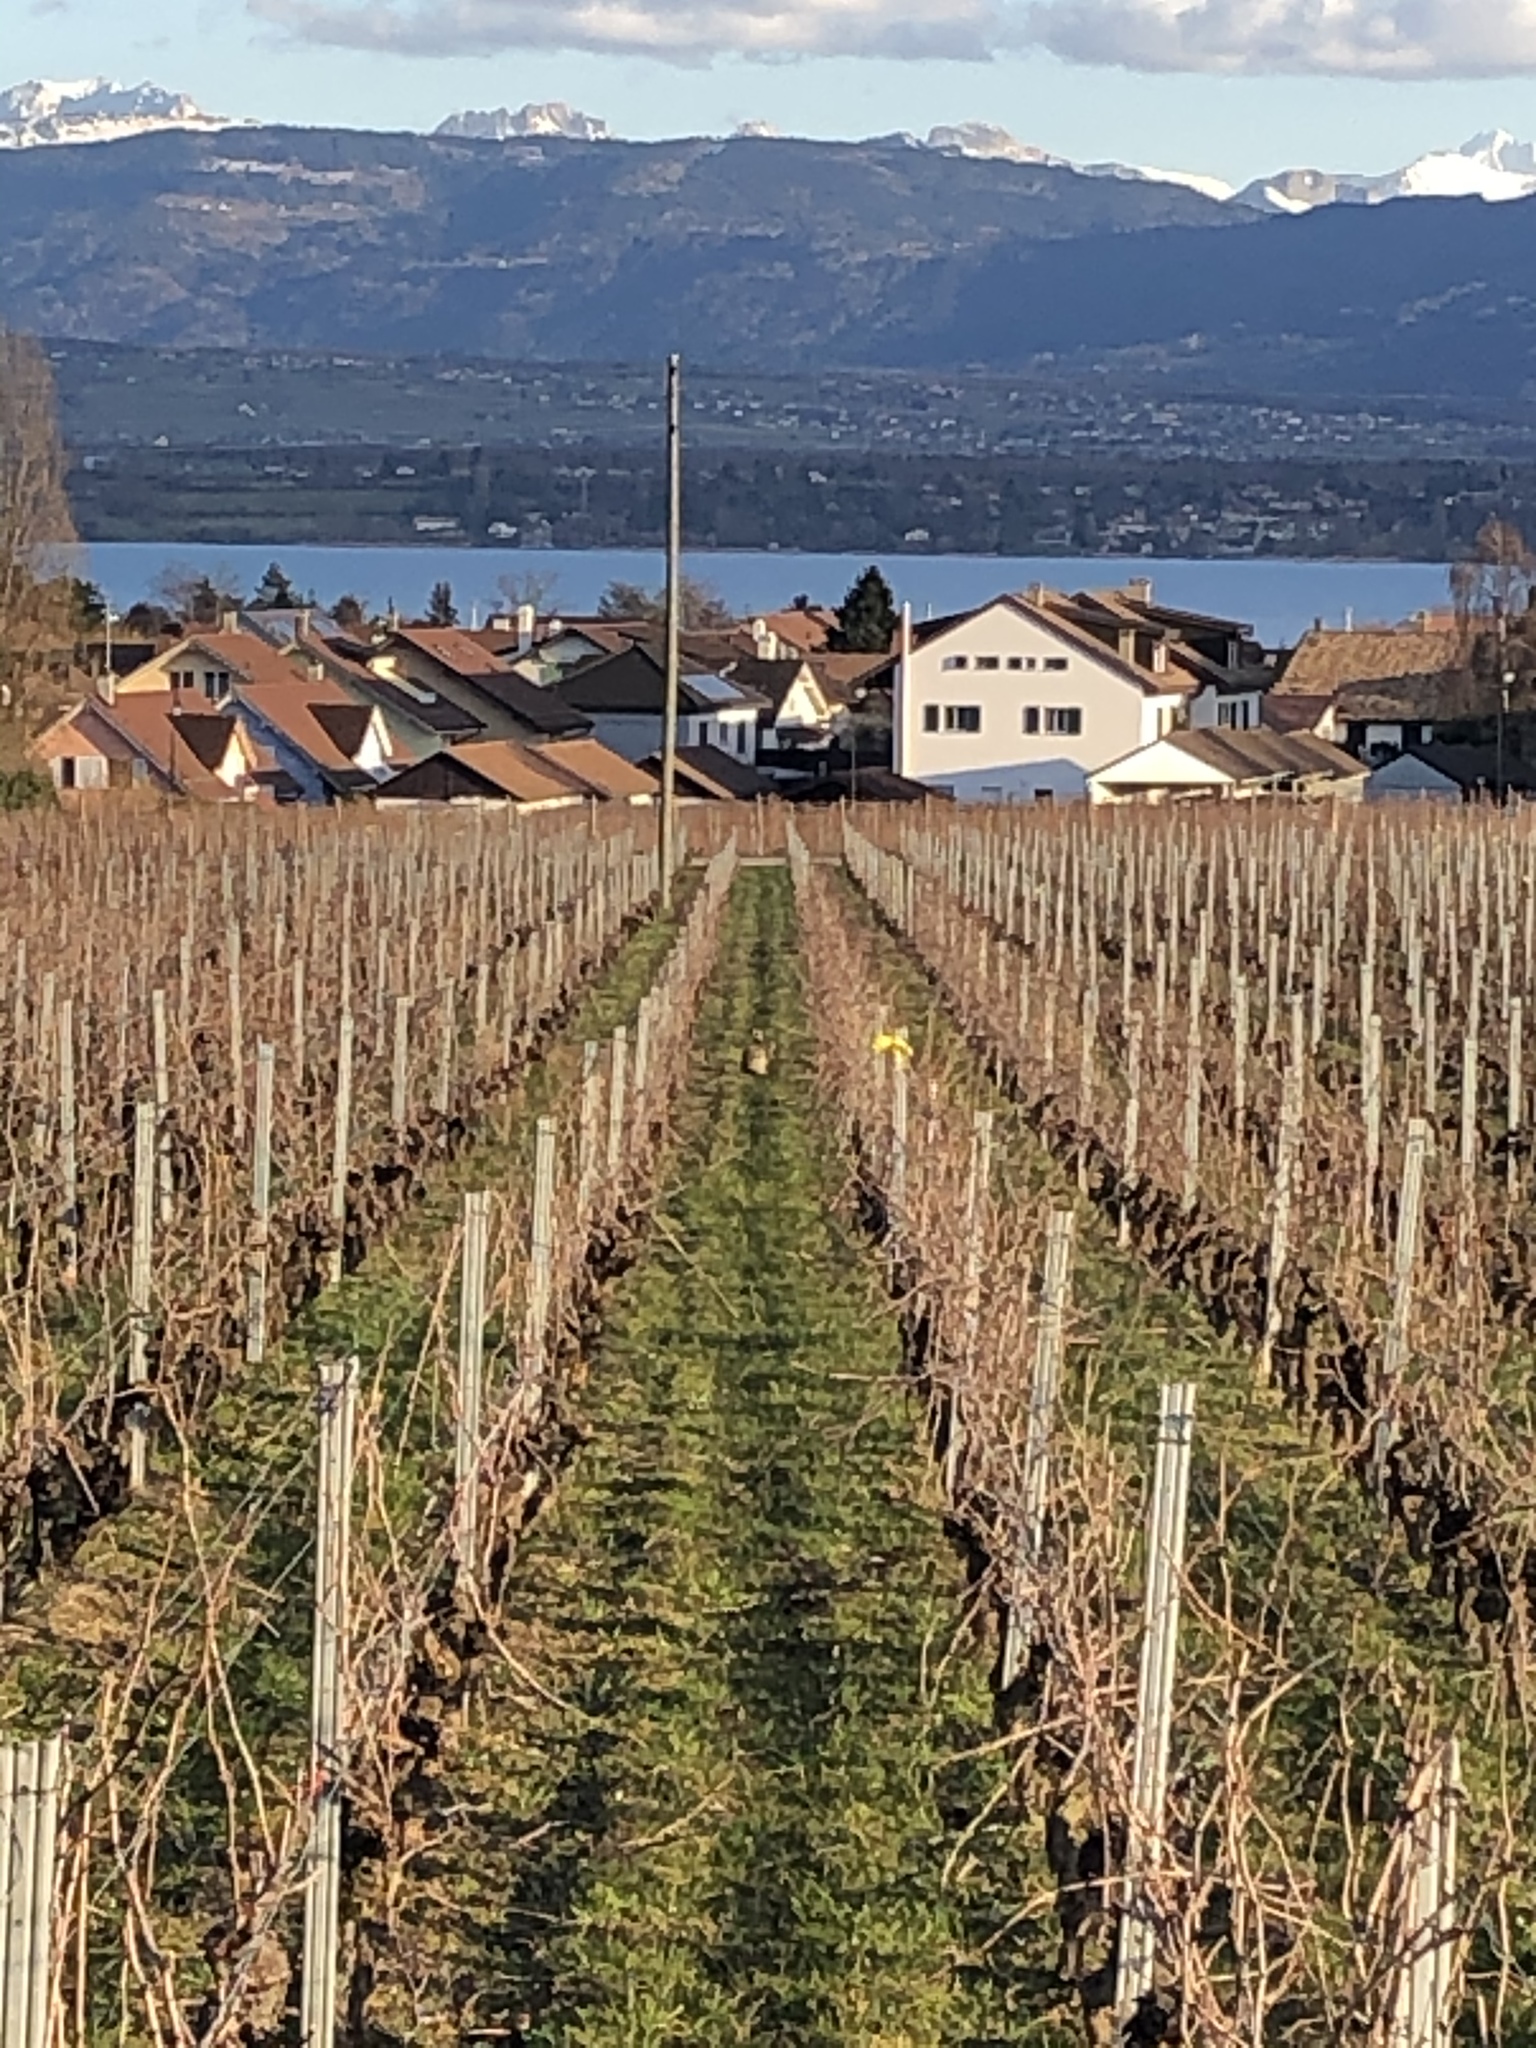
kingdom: Animalia
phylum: Chordata
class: Mammalia
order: Lagomorpha
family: Leporidae
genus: Lepus
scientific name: Lepus europaeus
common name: European hare
